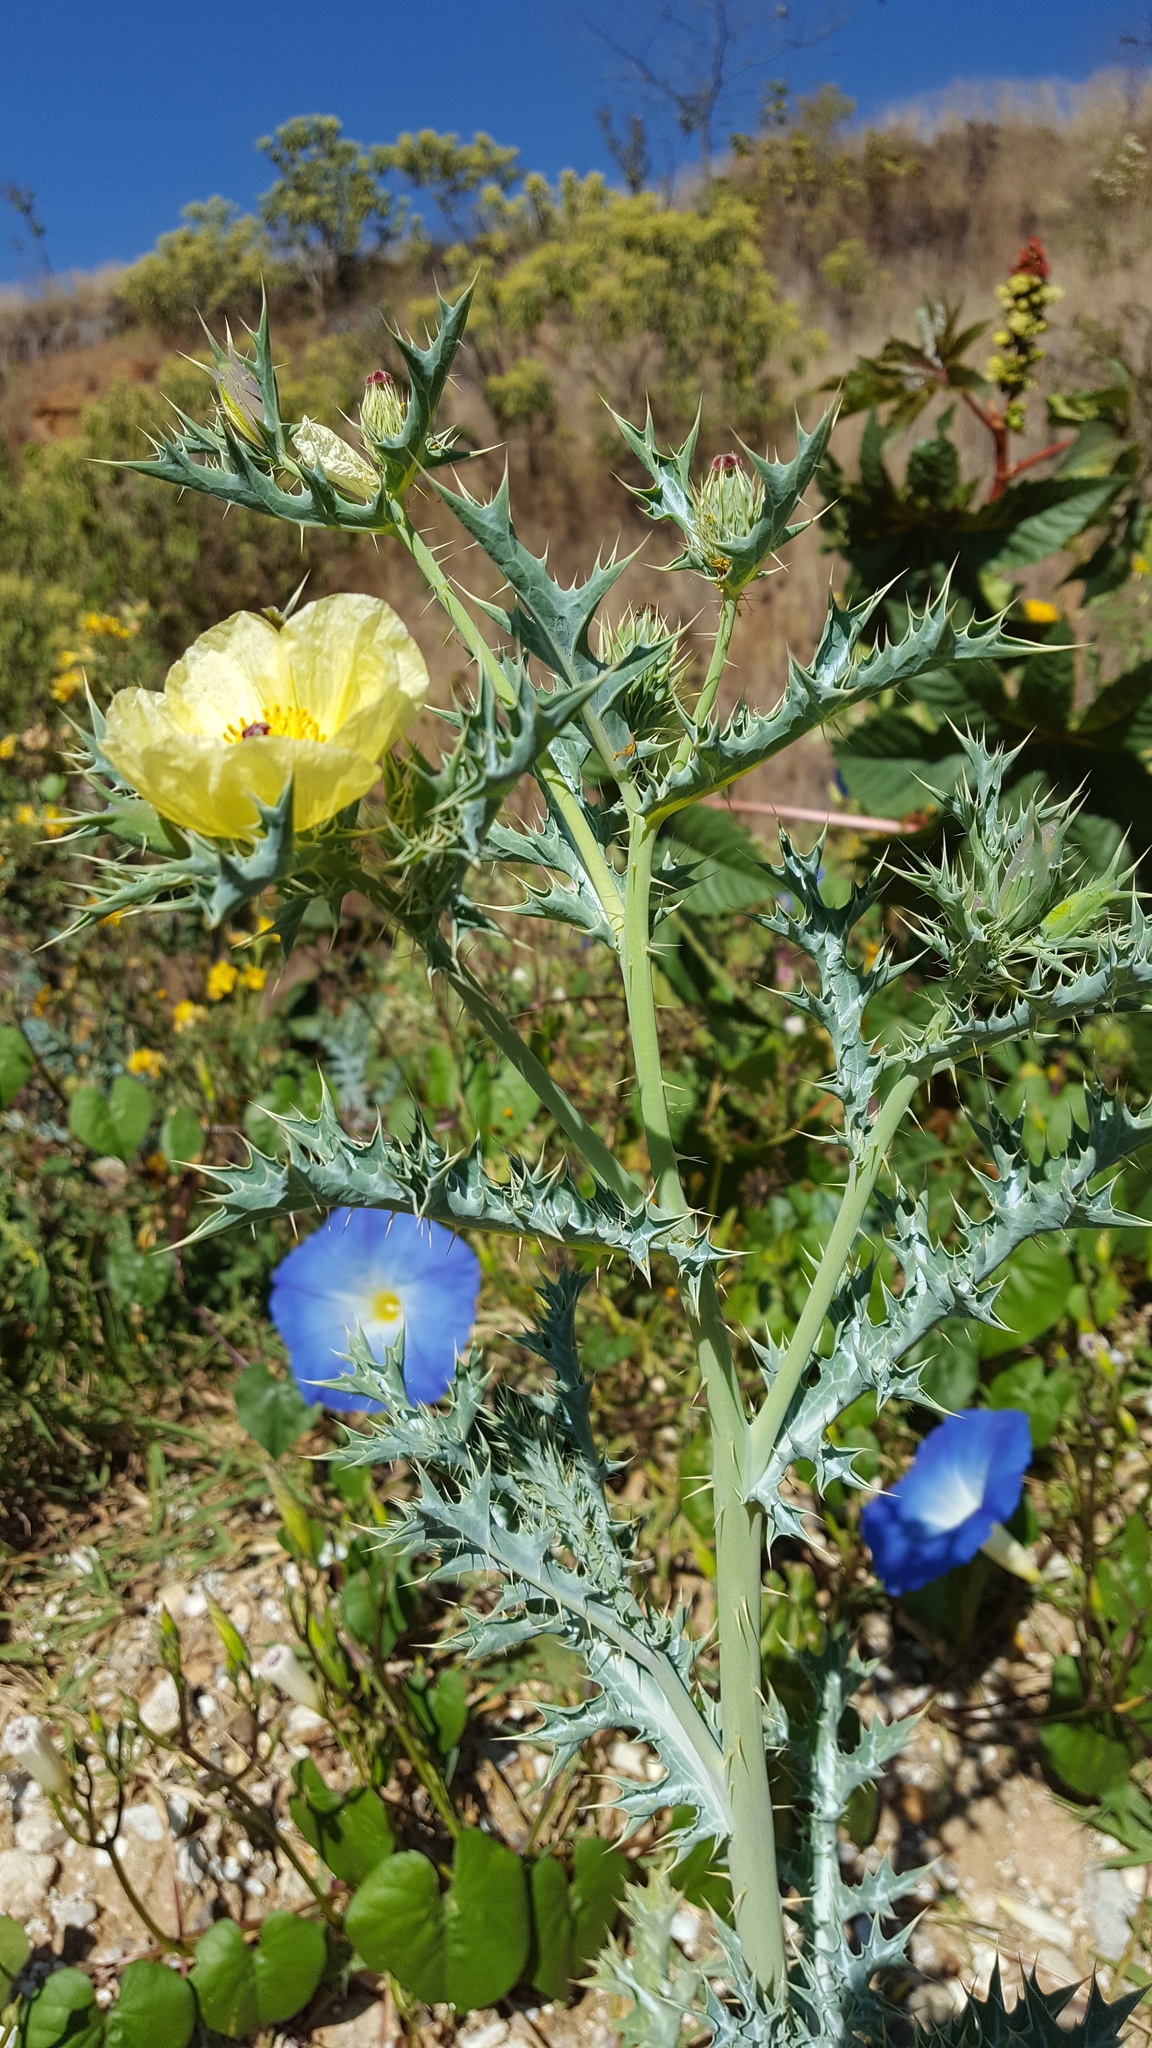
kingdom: Plantae
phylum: Tracheophyta
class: Magnoliopsida
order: Ranunculales
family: Papaveraceae
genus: Argemone
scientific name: Argemone ochroleuca
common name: White-flower mexican-poppy
